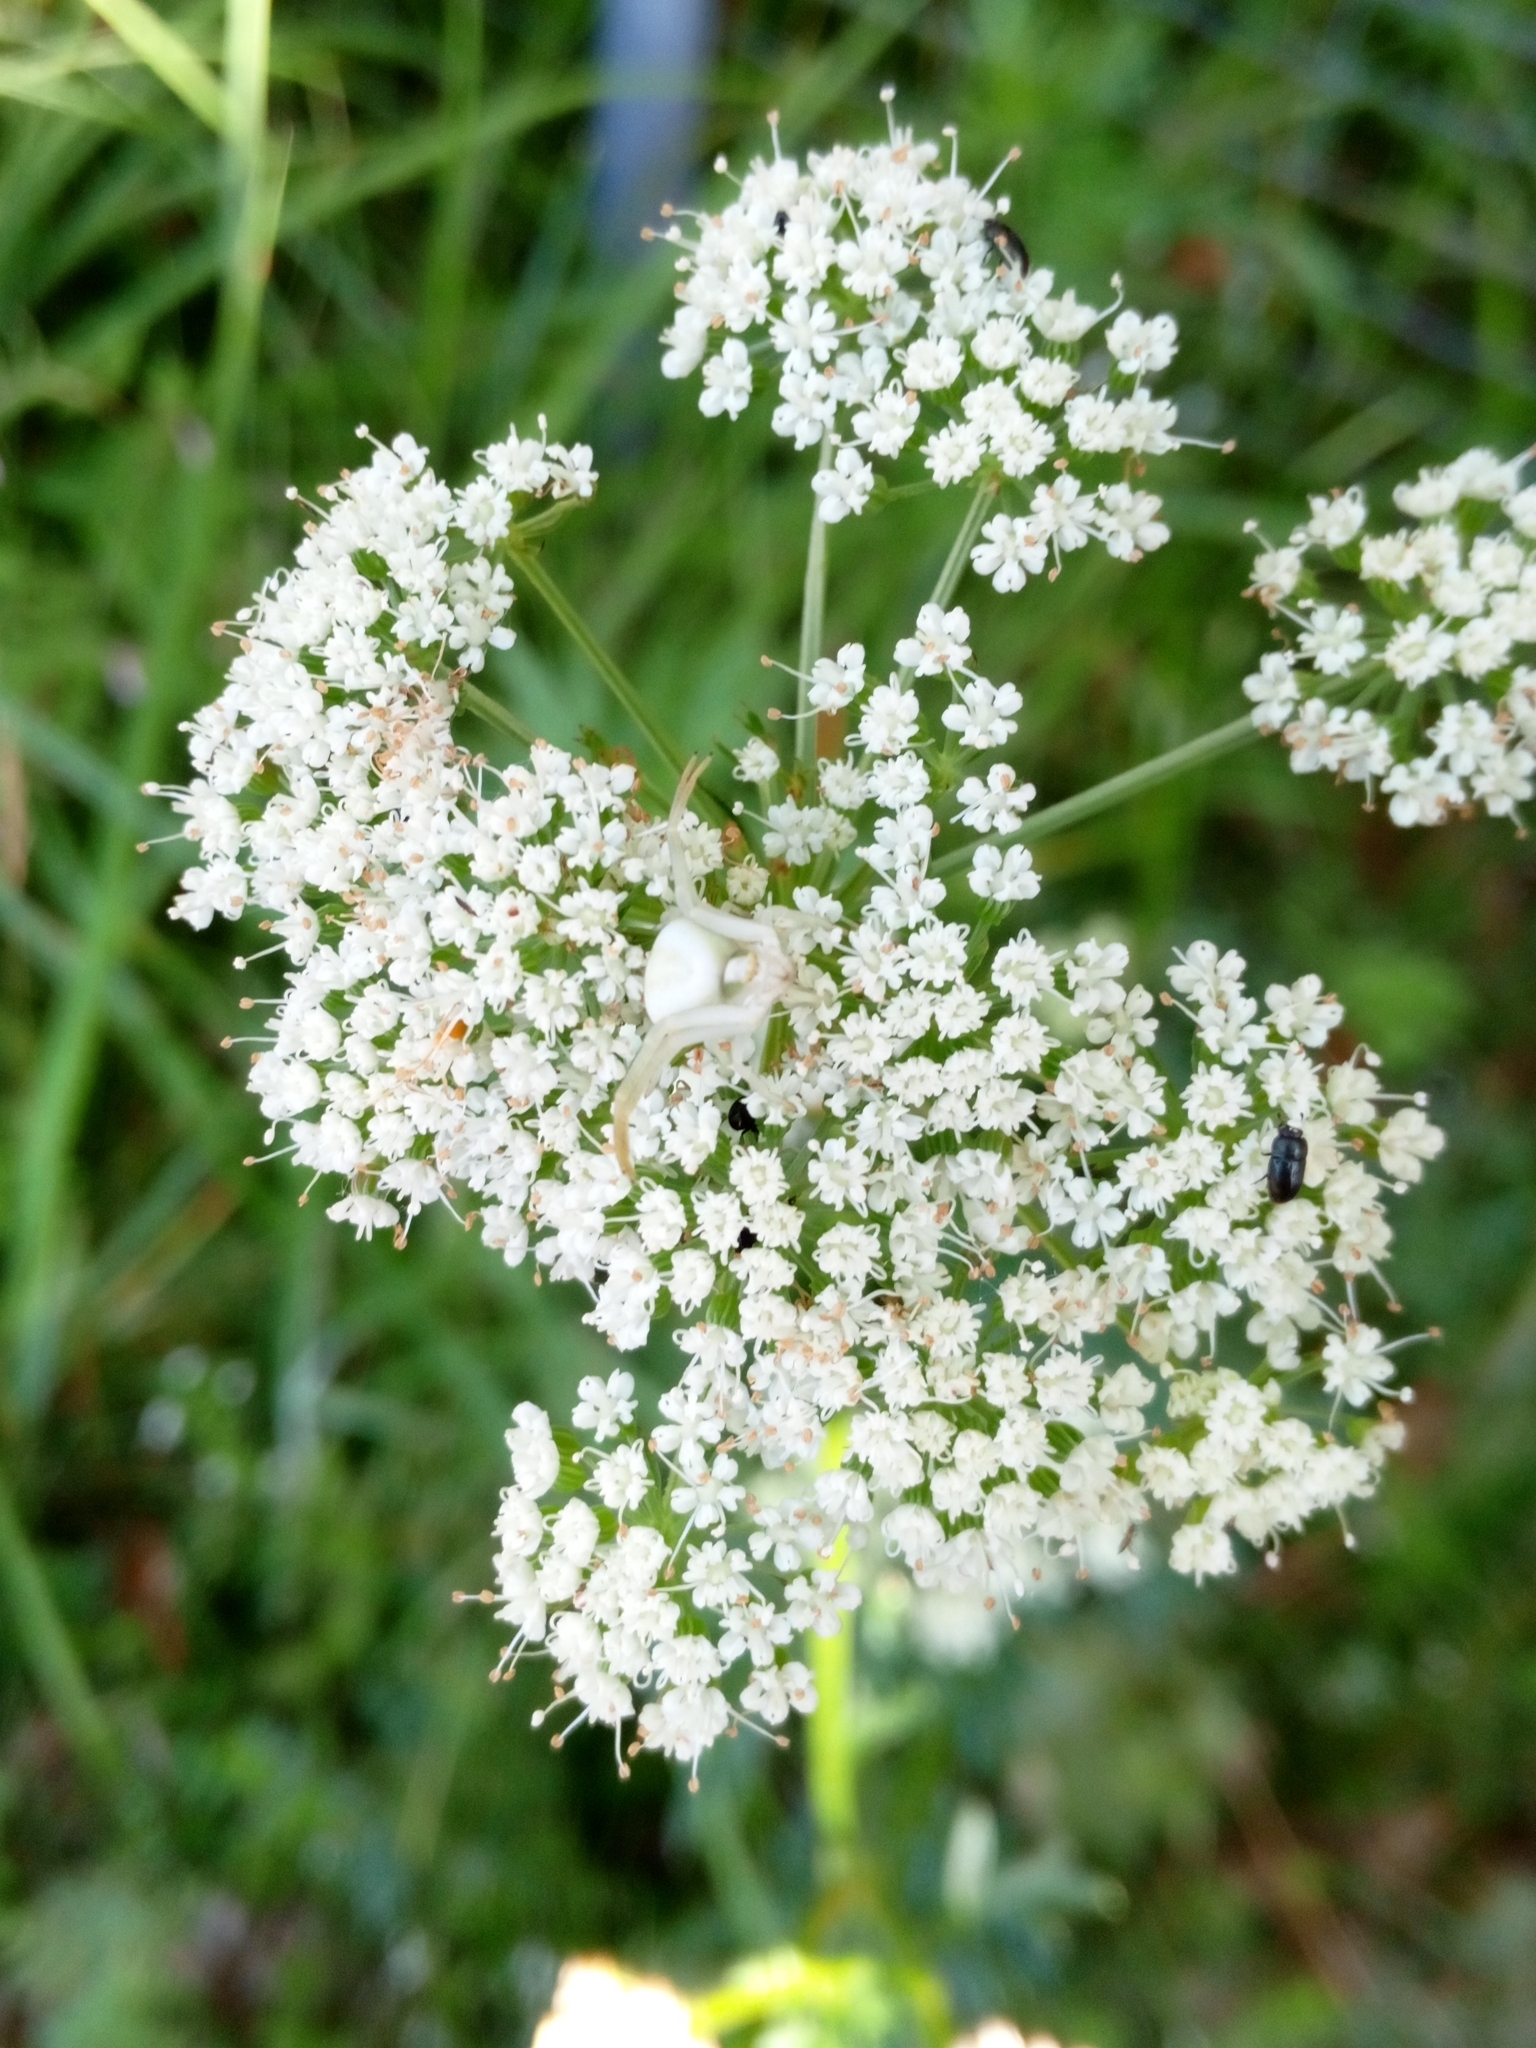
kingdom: Animalia
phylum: Arthropoda
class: Arachnida
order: Araneae
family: Thomisidae
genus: Misumena
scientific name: Misumena vatia
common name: Goldenrod crab spider
